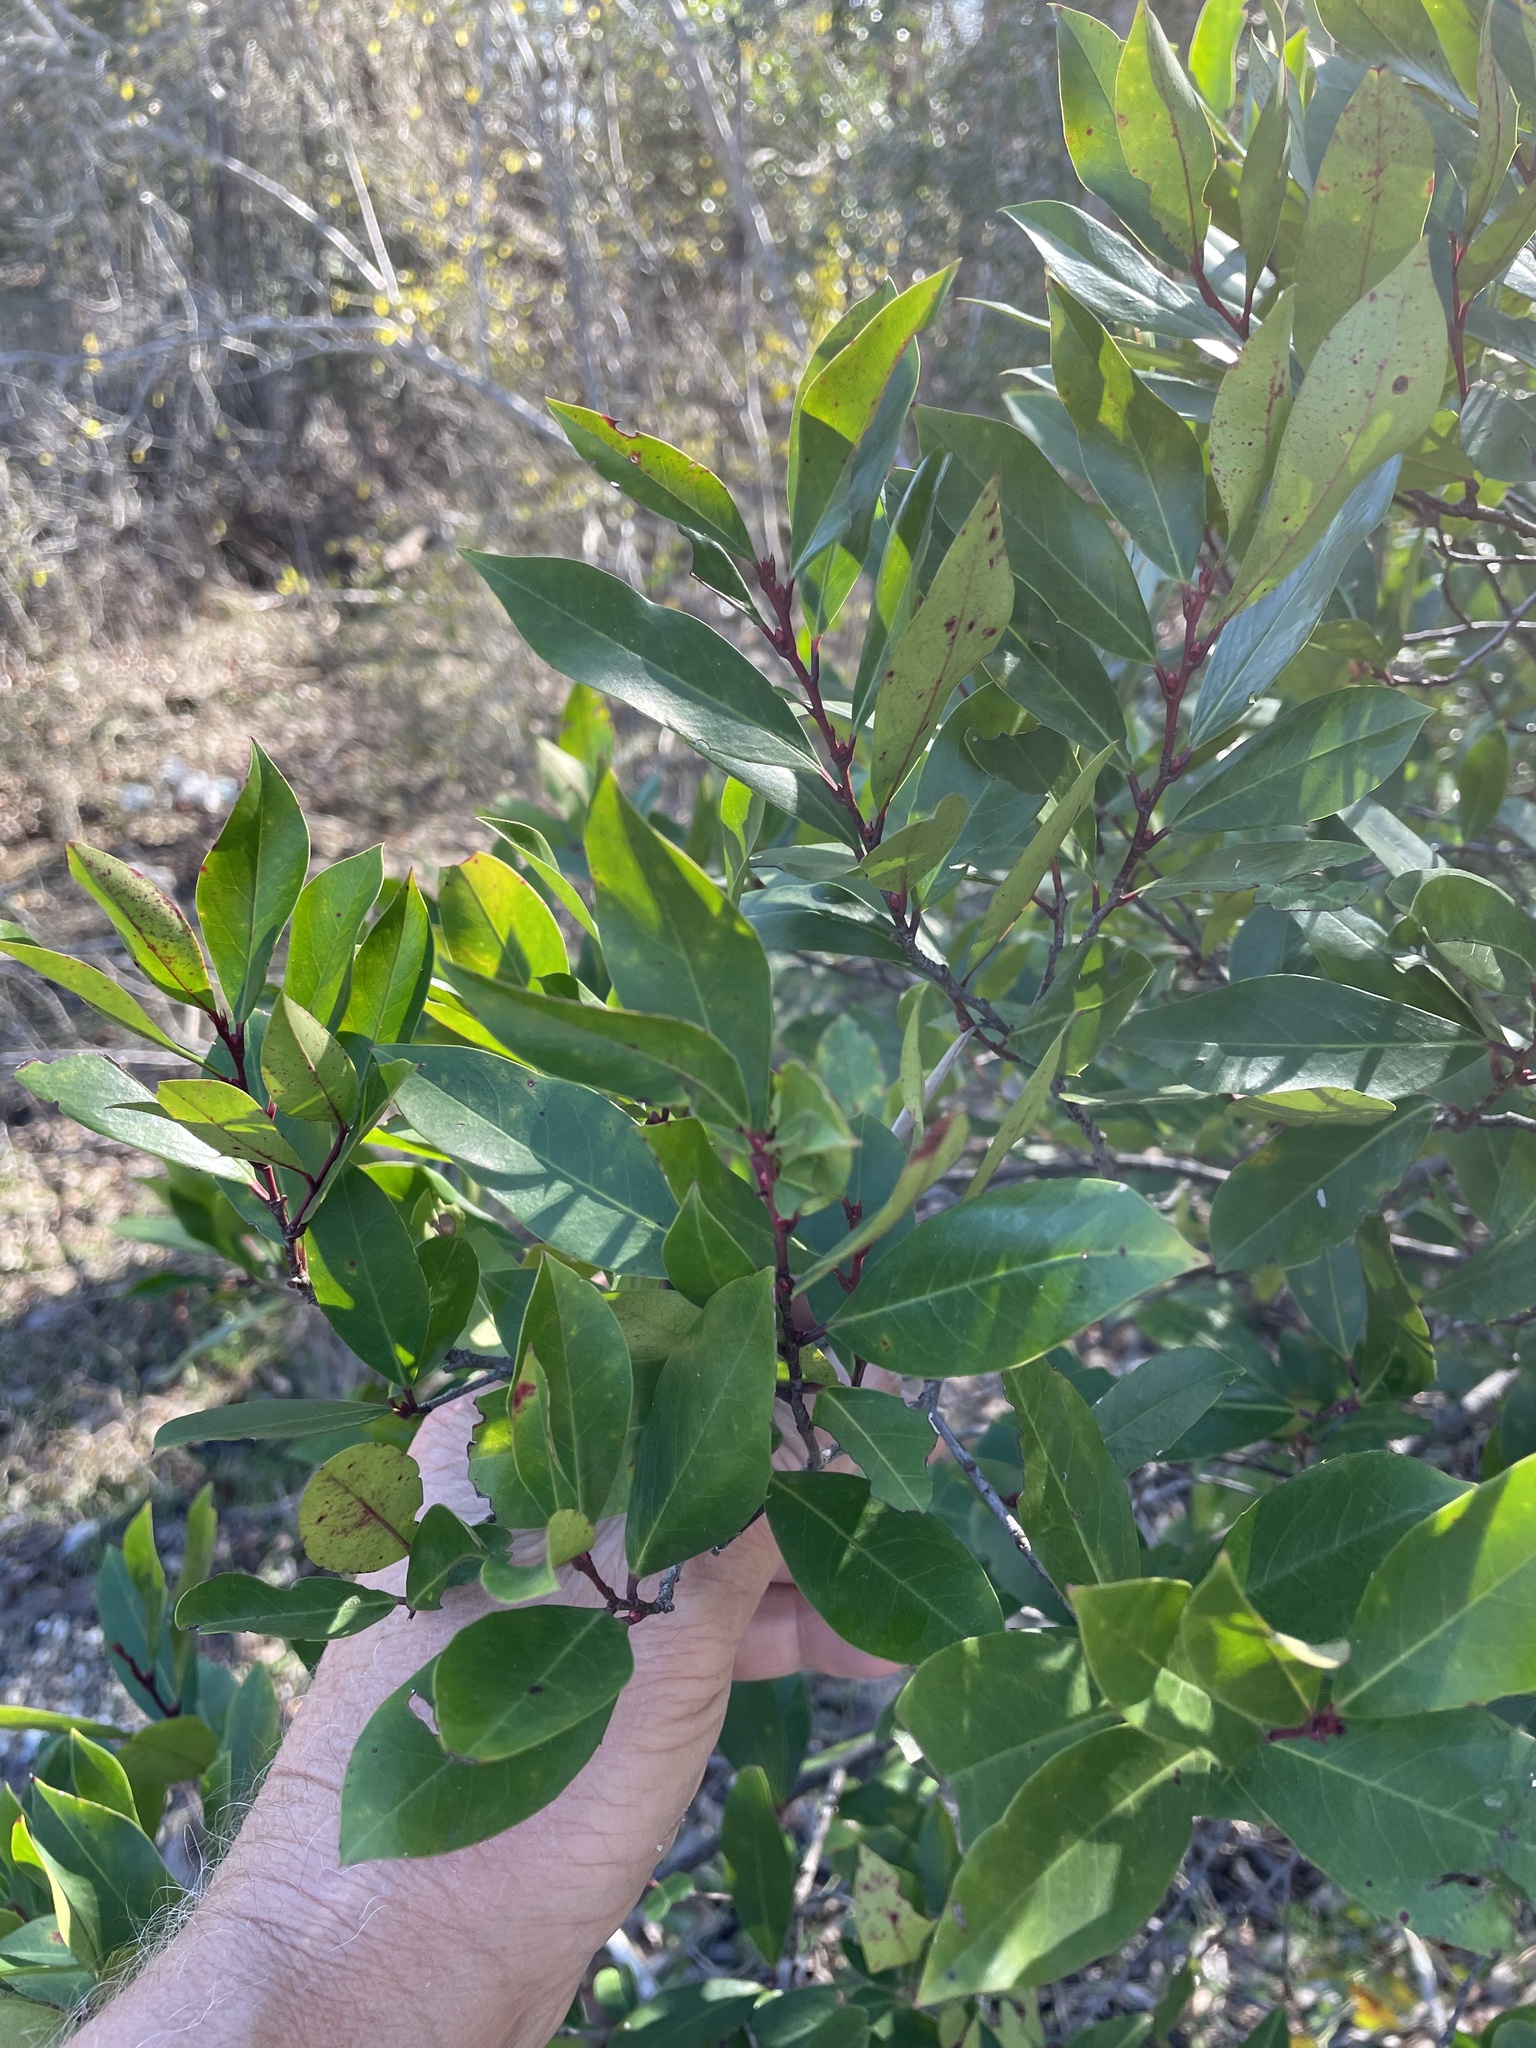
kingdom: Plantae
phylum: Tracheophyta
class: Magnoliopsida
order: Rosales
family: Rosaceae
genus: Prunus
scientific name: Prunus caroliniana
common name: Carolina laurel cherry
